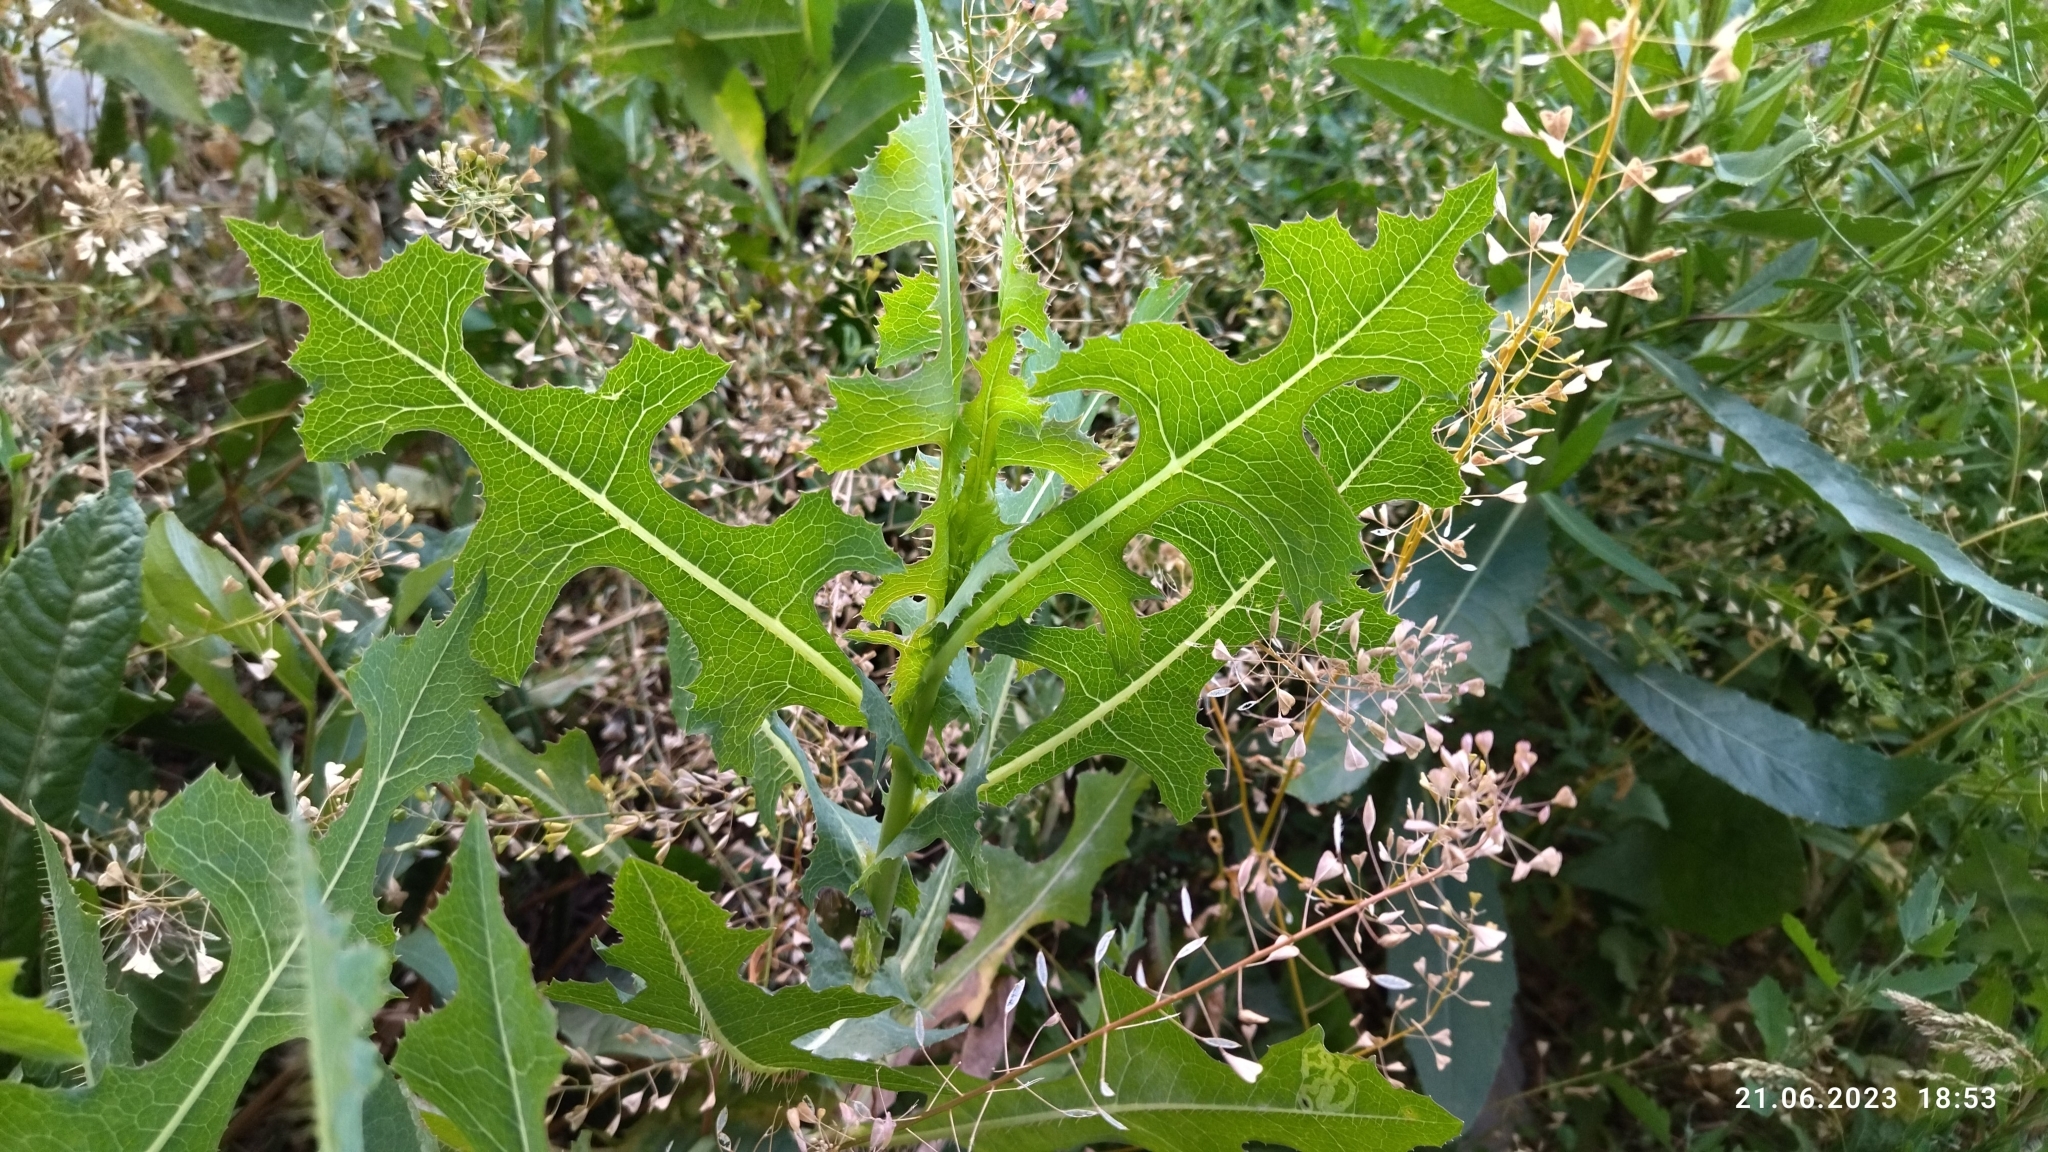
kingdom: Plantae
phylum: Tracheophyta
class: Magnoliopsida
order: Asterales
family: Asteraceae
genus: Lactuca
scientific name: Lactuca serriola
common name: Prickly lettuce
